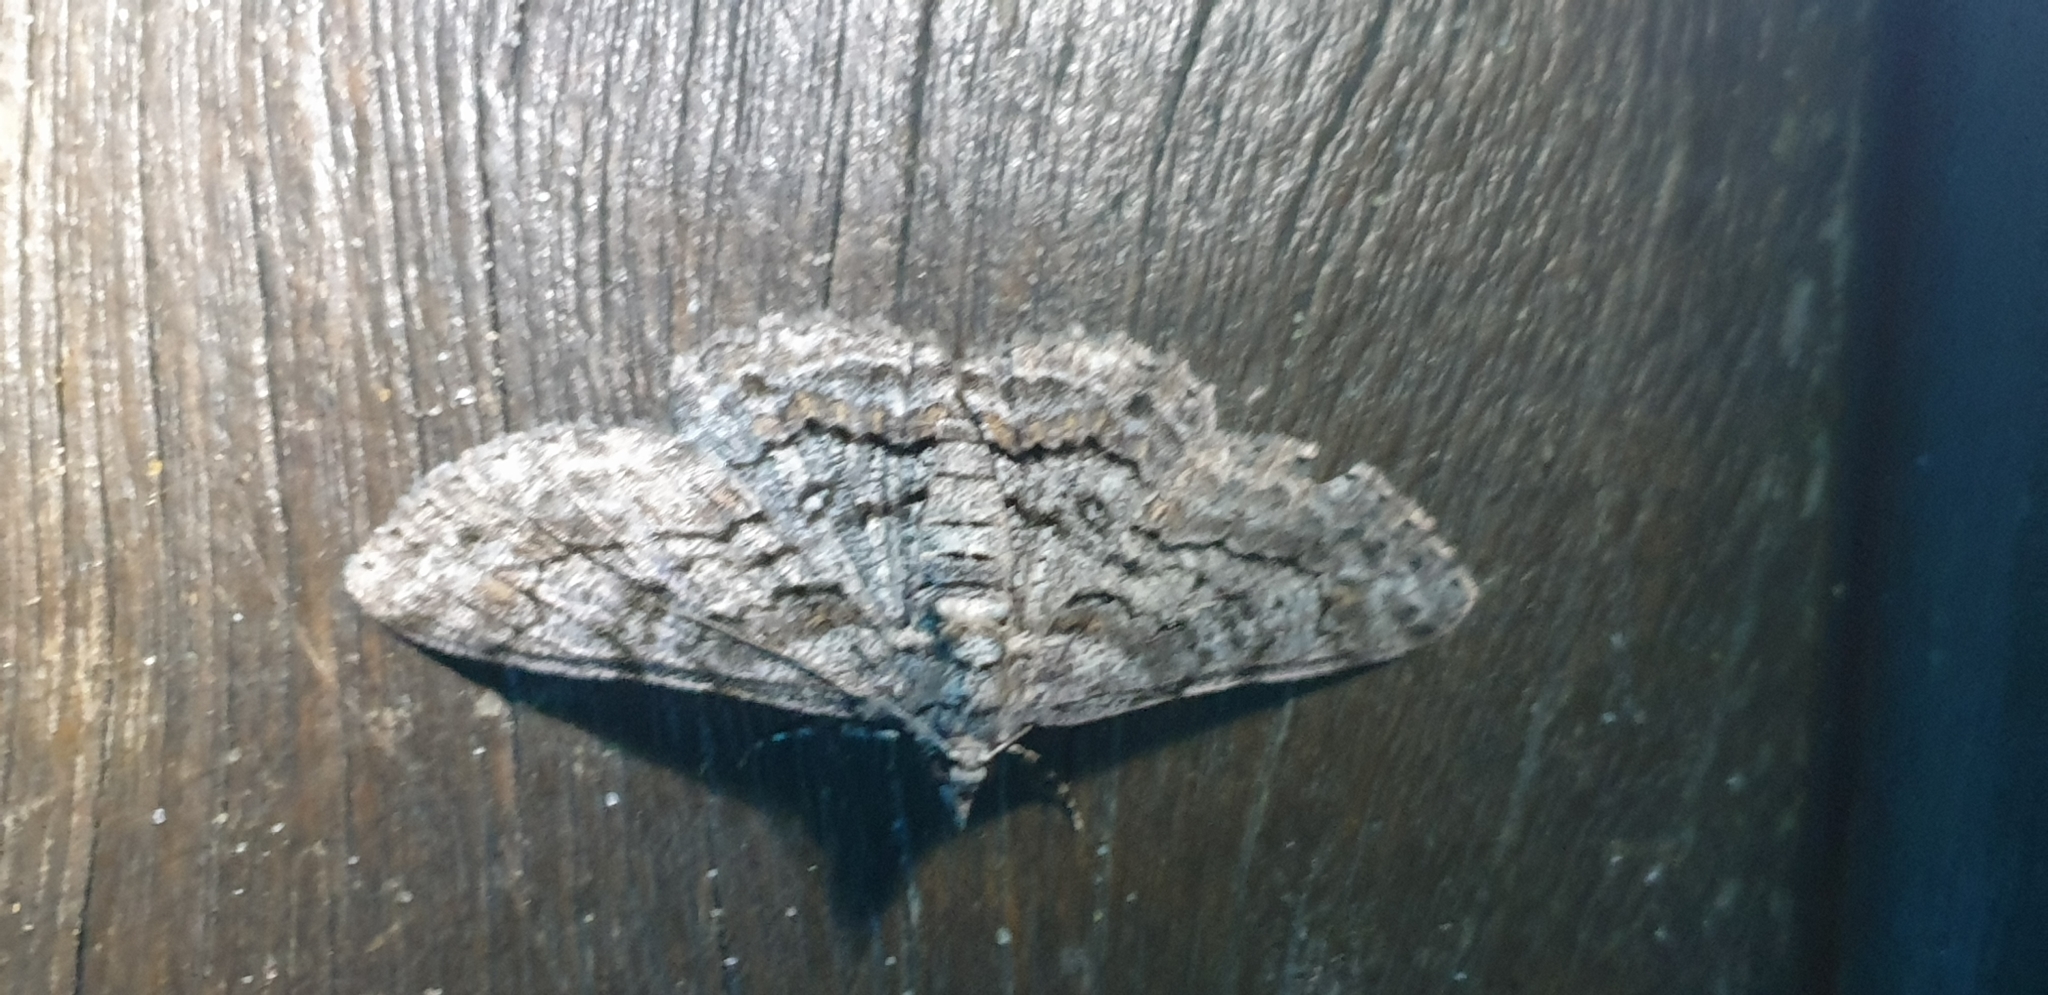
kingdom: Animalia
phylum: Arthropoda
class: Insecta
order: Lepidoptera
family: Geometridae
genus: Cleora
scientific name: Cleora displicata
